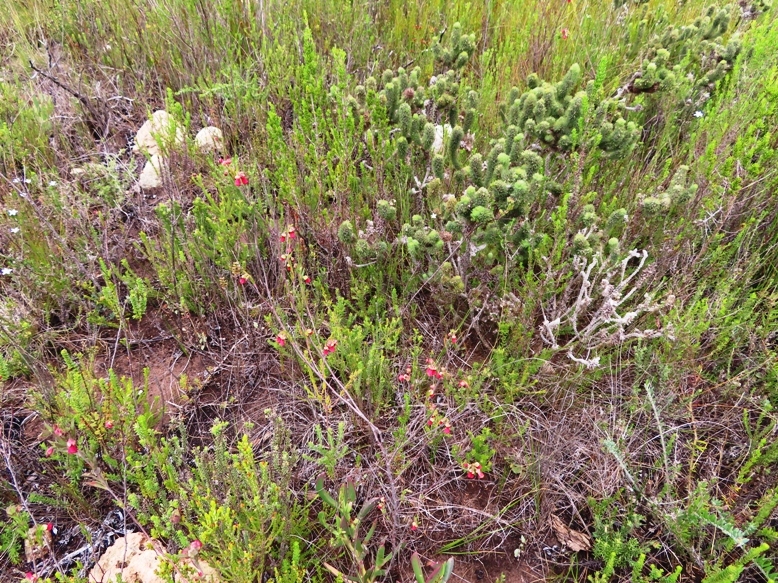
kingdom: Plantae
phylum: Tracheophyta
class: Magnoliopsida
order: Malvales
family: Malvaceae
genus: Hermannia
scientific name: Hermannia joubertiana
